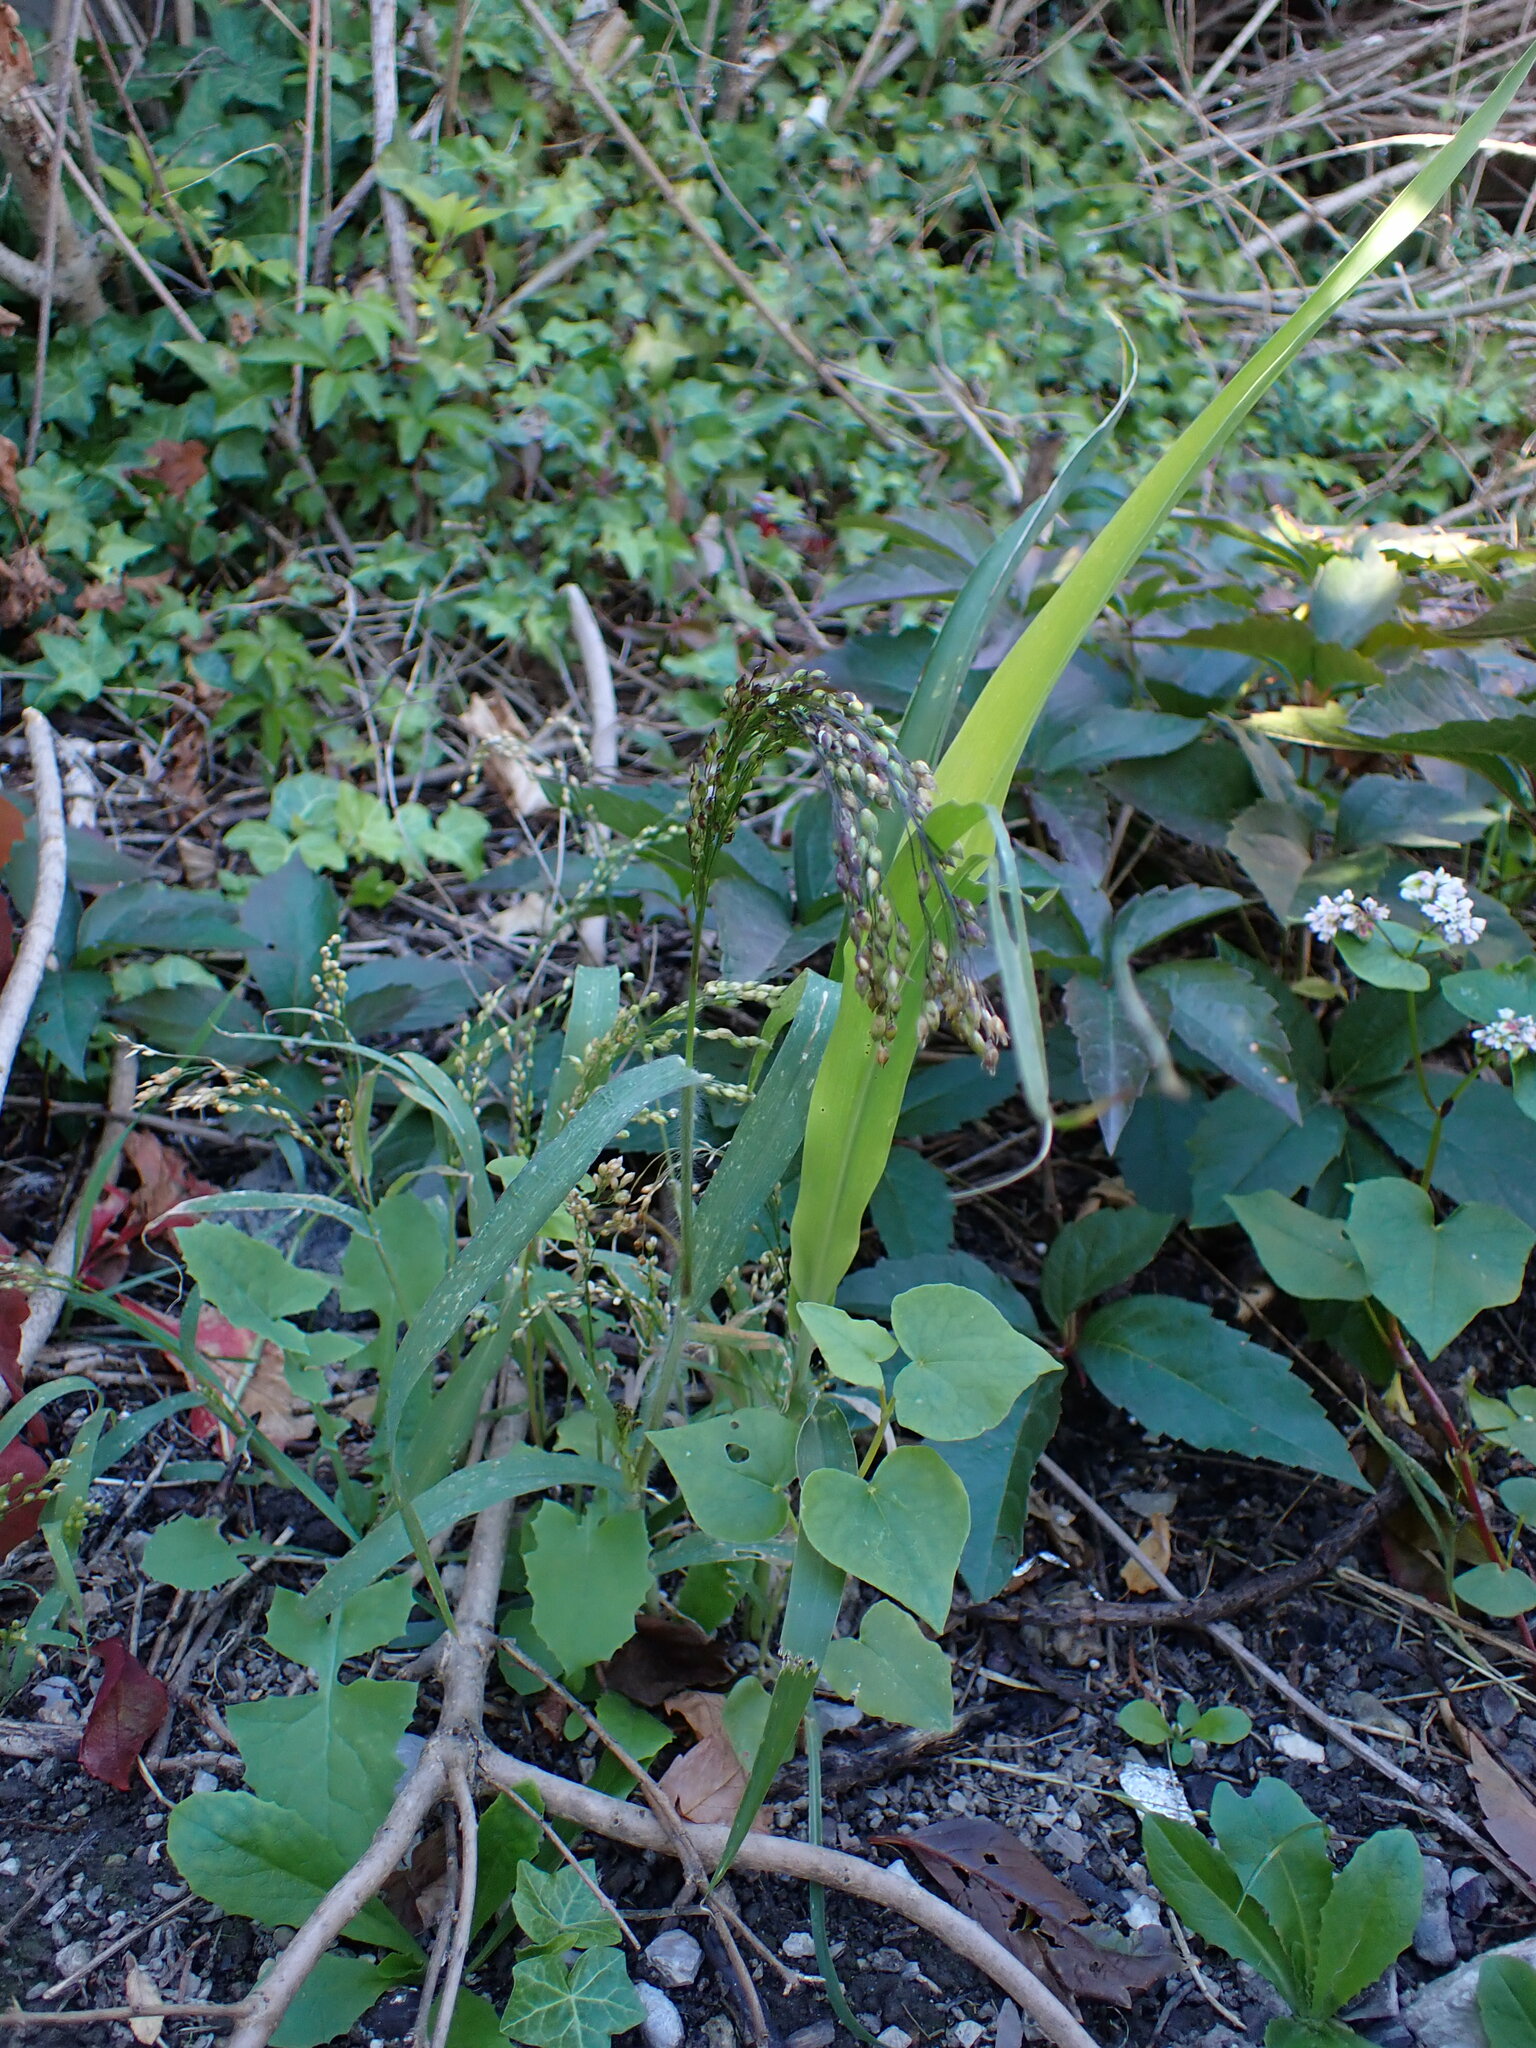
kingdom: Plantae
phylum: Tracheophyta
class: Liliopsida
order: Poales
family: Poaceae
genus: Panicum
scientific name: Panicum miliaceum
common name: Common millet
